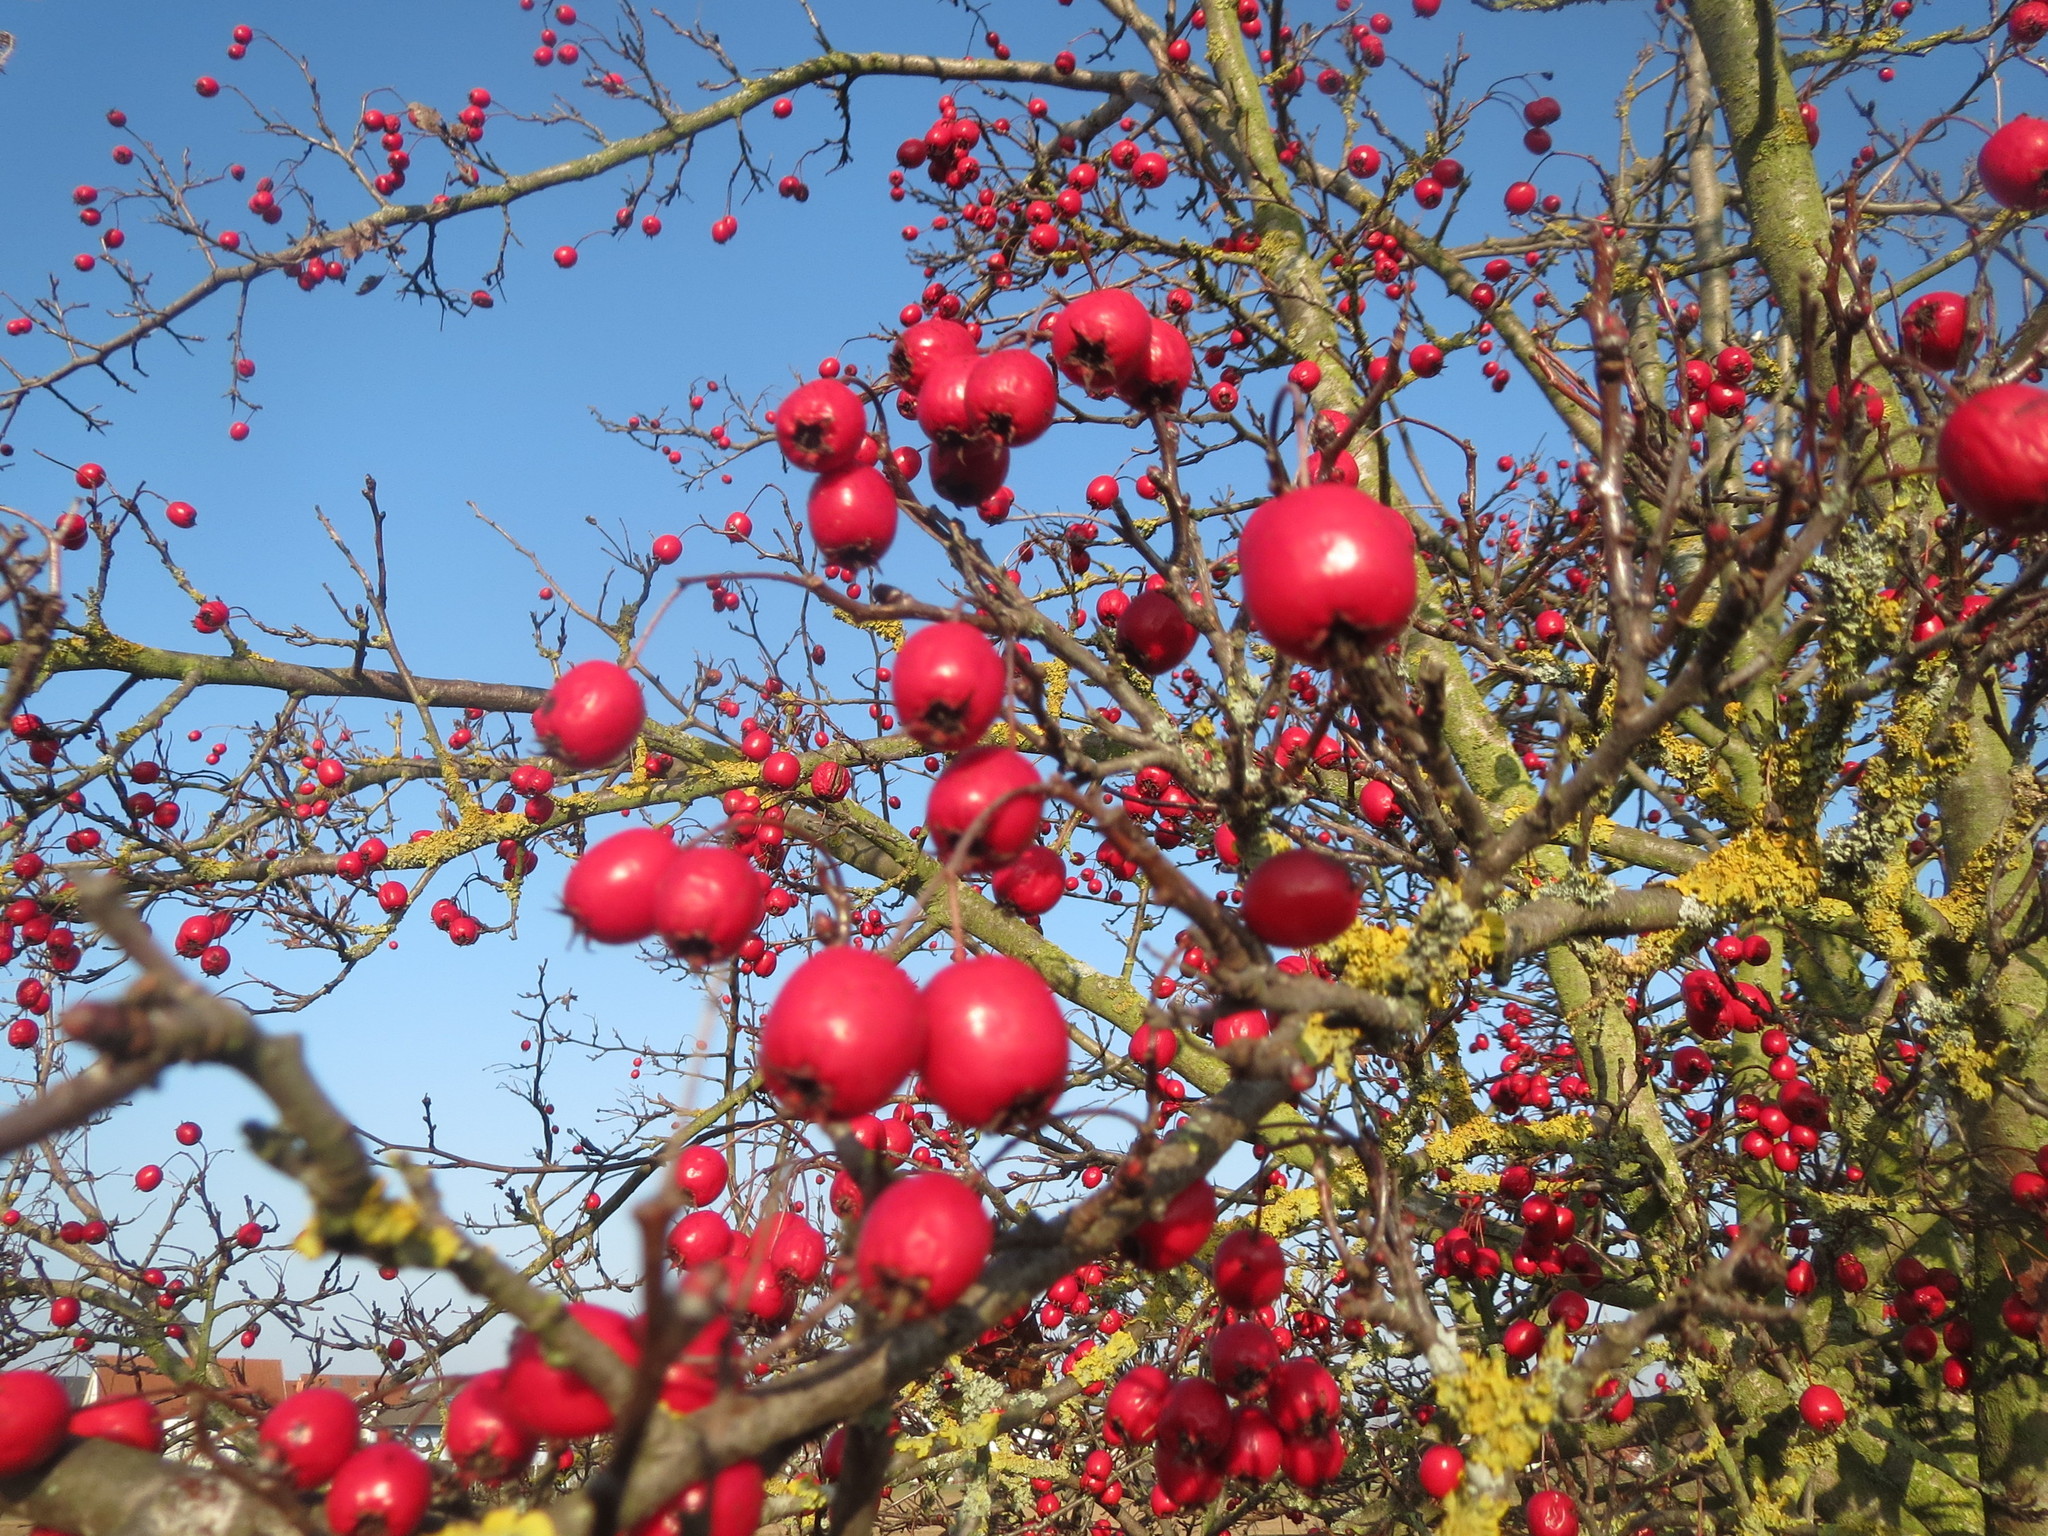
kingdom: Plantae
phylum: Tracheophyta
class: Magnoliopsida
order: Rosales
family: Rosaceae
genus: Crataegus
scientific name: Crataegus monogyna
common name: Hawthorn
